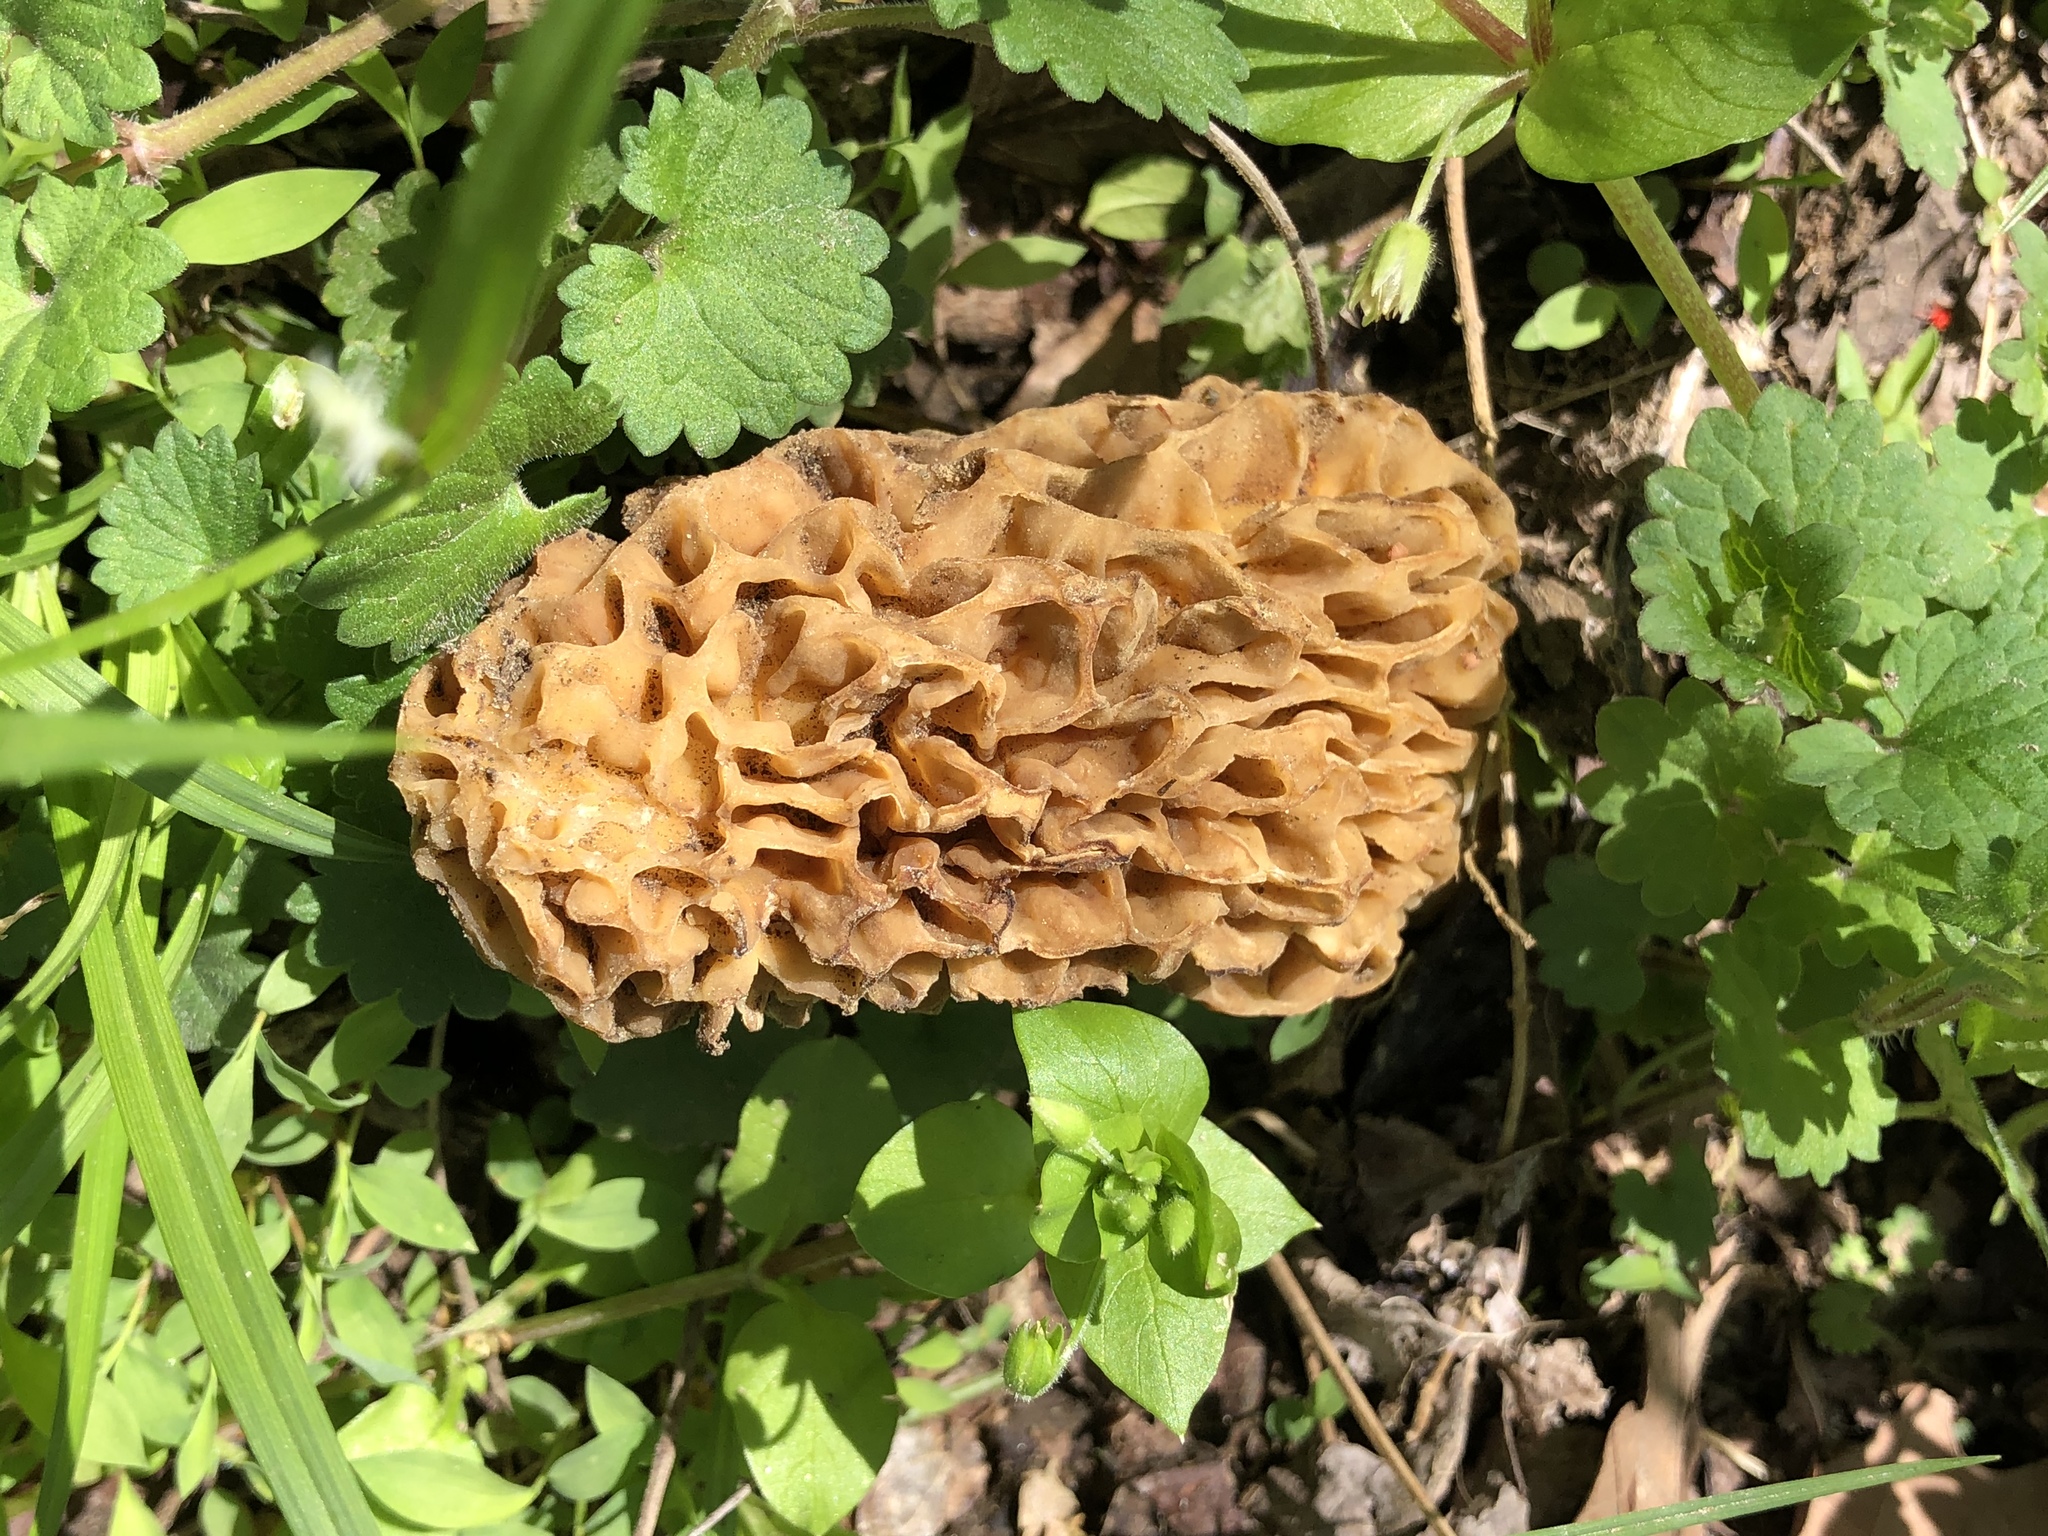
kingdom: Fungi
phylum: Ascomycota
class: Pezizomycetes
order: Pezizales
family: Morchellaceae
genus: Morchella
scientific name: Morchella americana
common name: White morel
